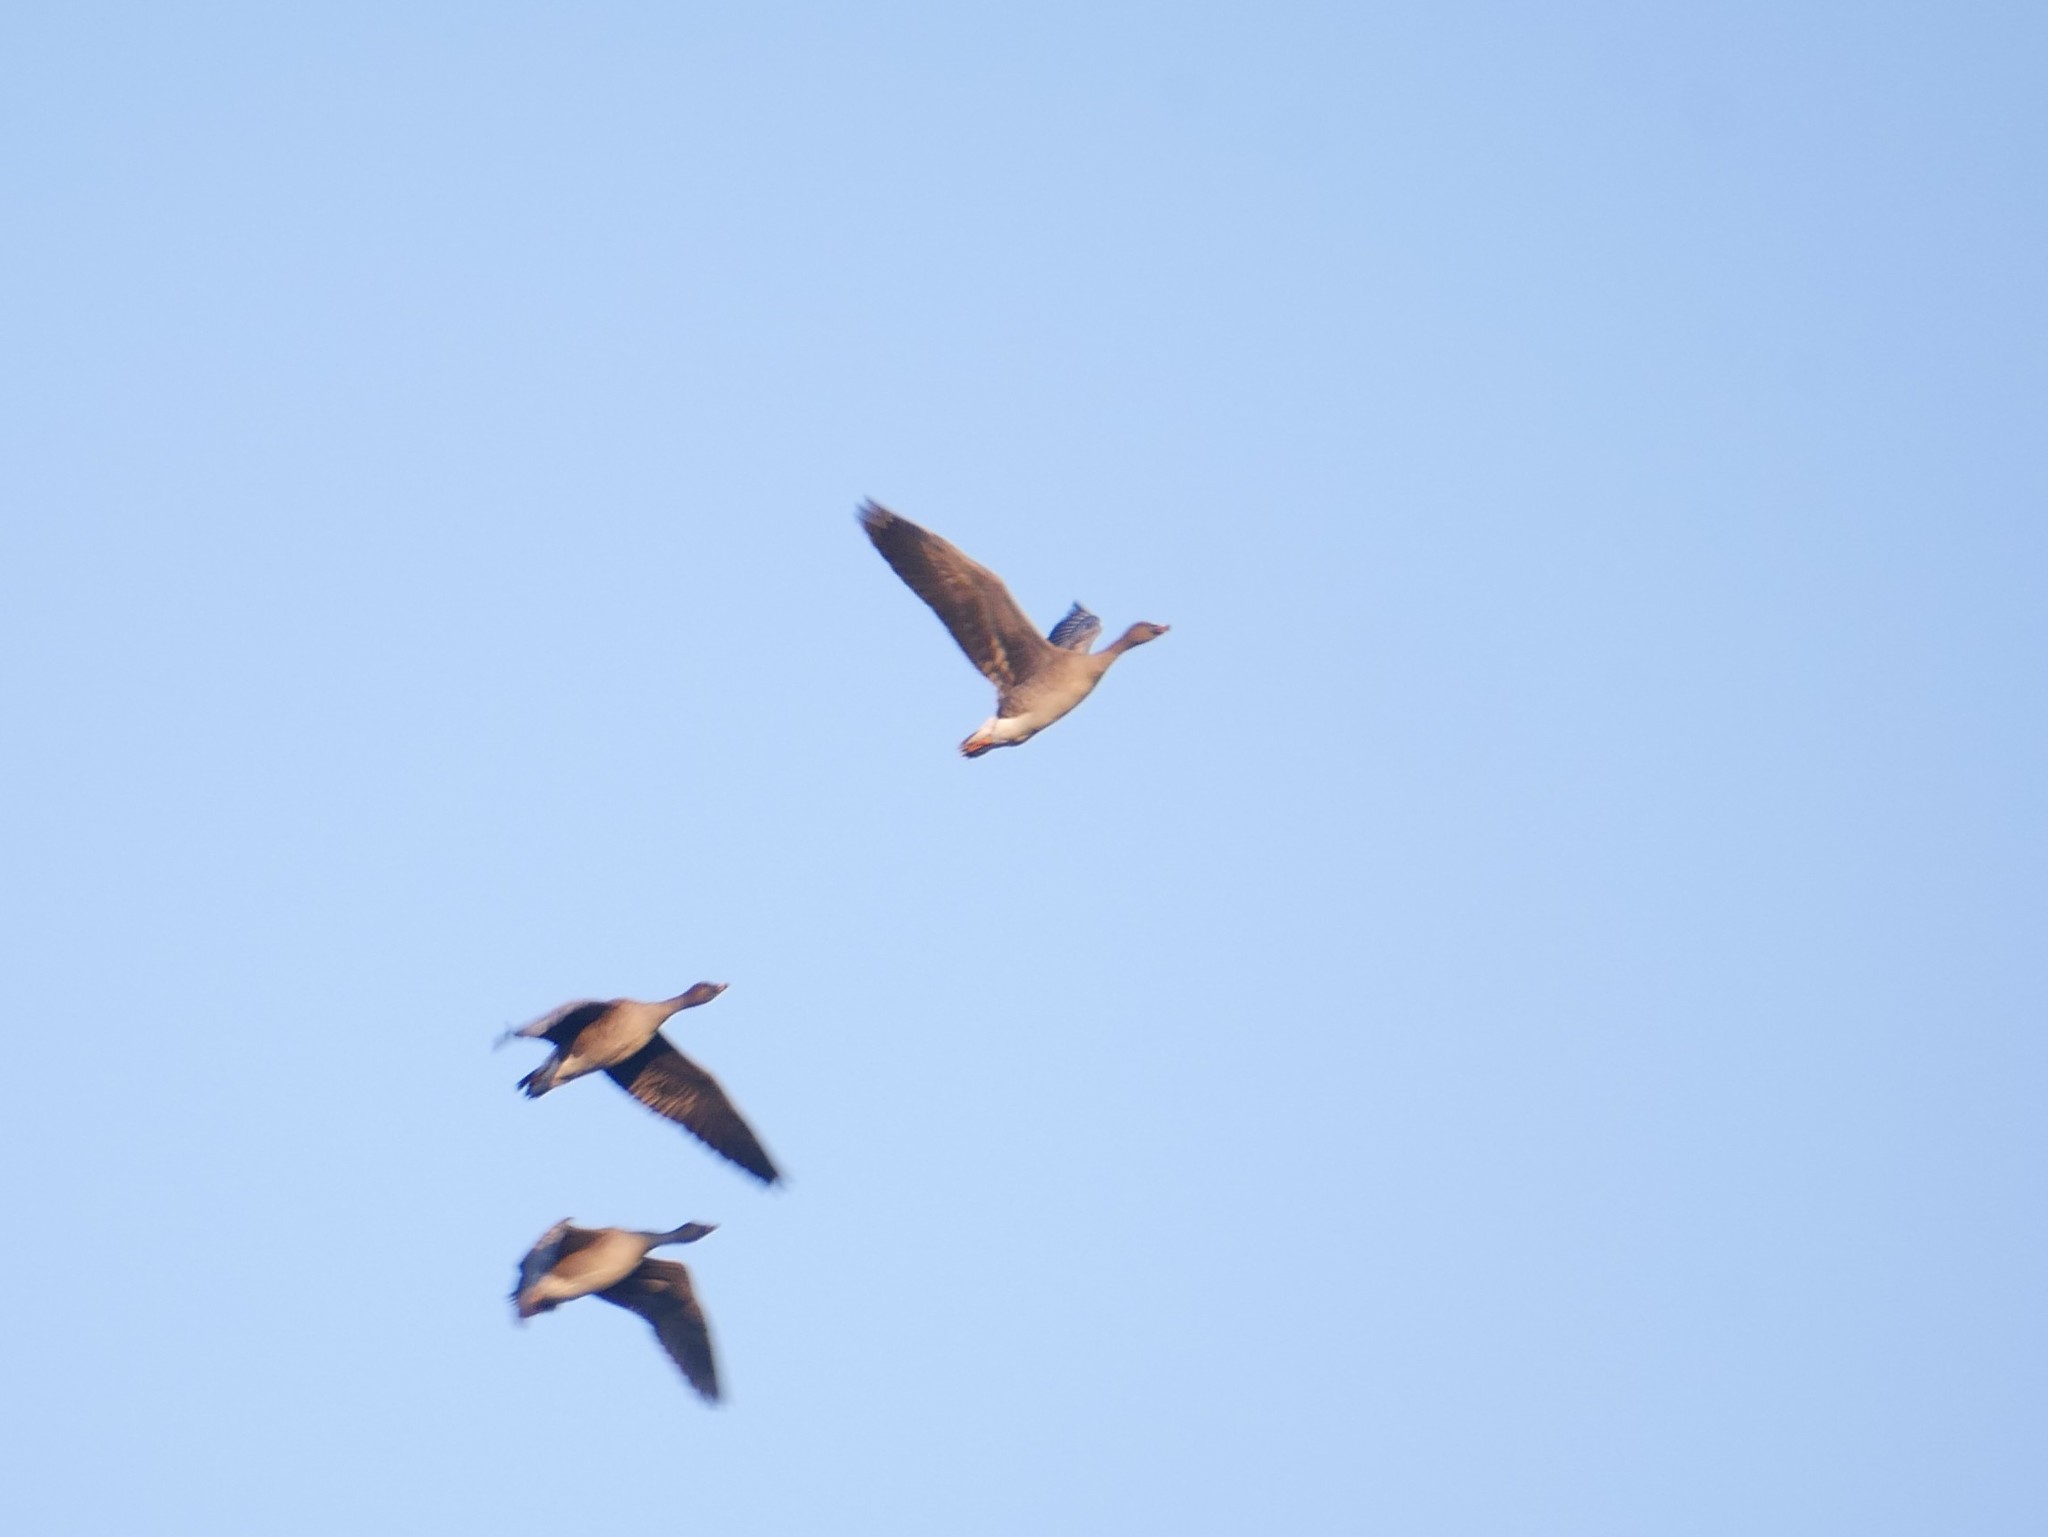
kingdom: Animalia
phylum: Chordata
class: Aves
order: Anseriformes
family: Anatidae
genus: Anser
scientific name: Anser serrirostris
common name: Tundra bean goose
